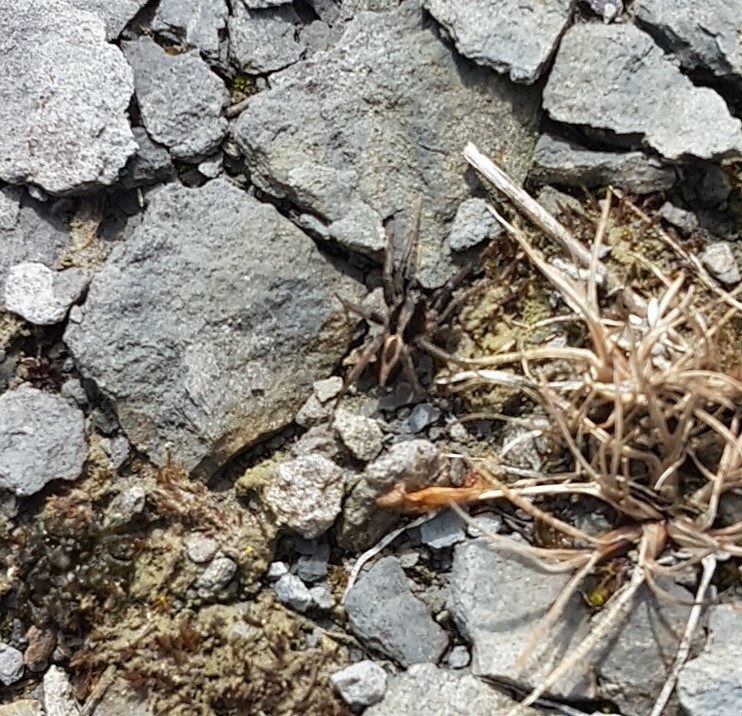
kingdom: Animalia
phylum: Arthropoda
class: Arachnida
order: Araneae
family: Lycosidae
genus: Alopecosa
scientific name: Alopecosa albofasciata
